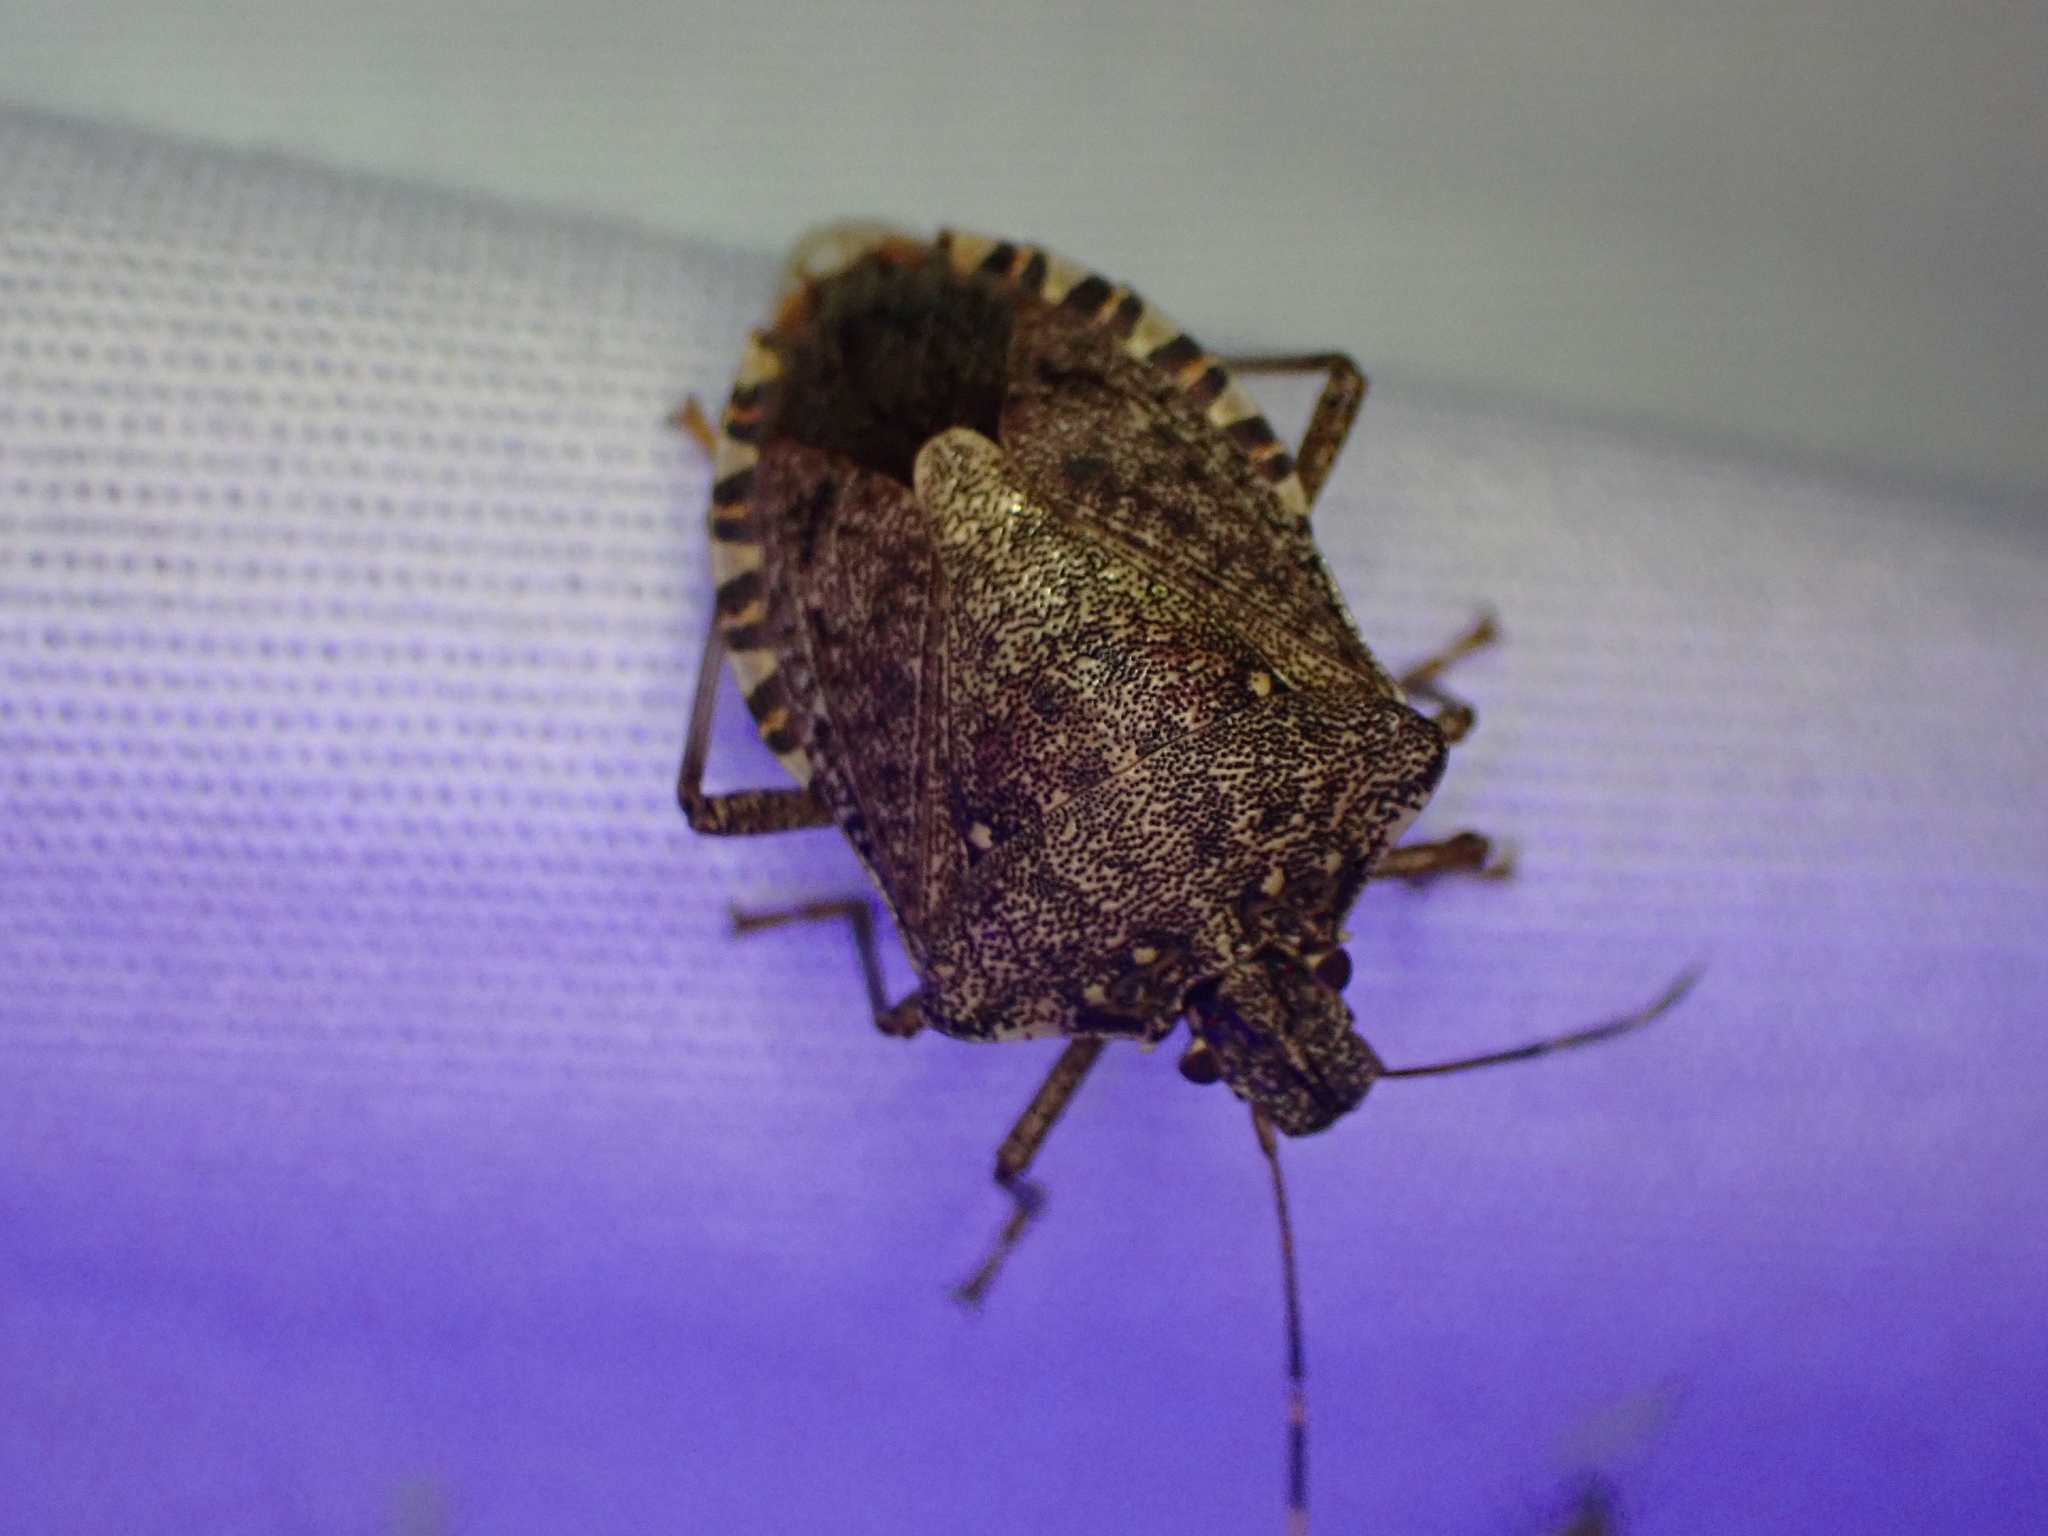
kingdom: Animalia
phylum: Arthropoda
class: Insecta
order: Hemiptera
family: Pentatomidae
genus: Halyomorpha
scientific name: Halyomorpha halys
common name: Brown marmorated stink bug
